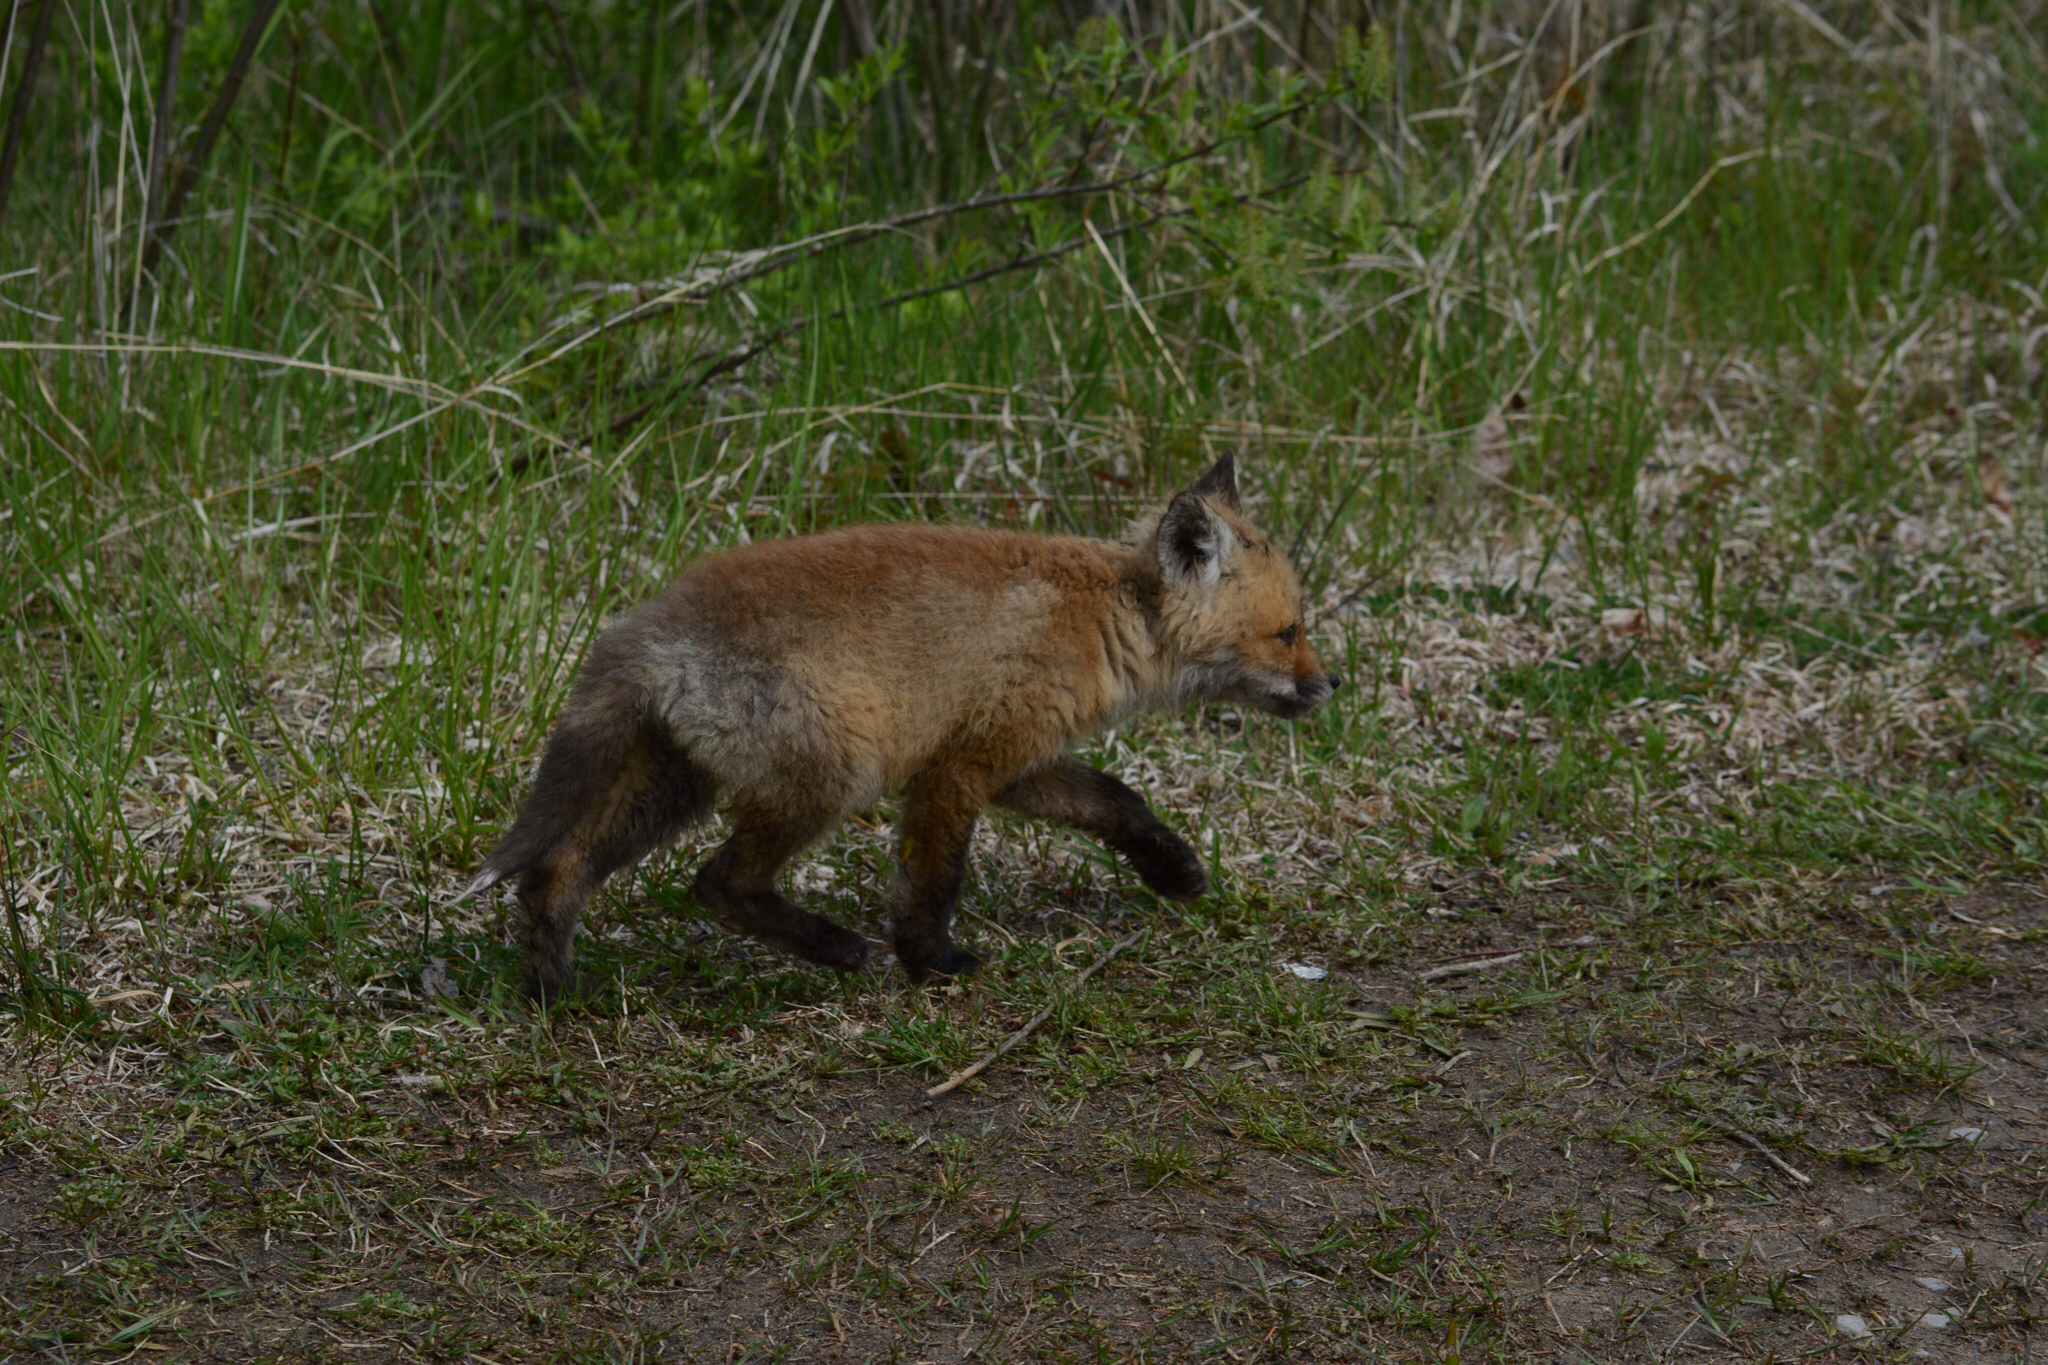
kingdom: Animalia
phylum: Chordata
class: Mammalia
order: Carnivora
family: Canidae
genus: Vulpes
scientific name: Vulpes vulpes
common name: Red fox
